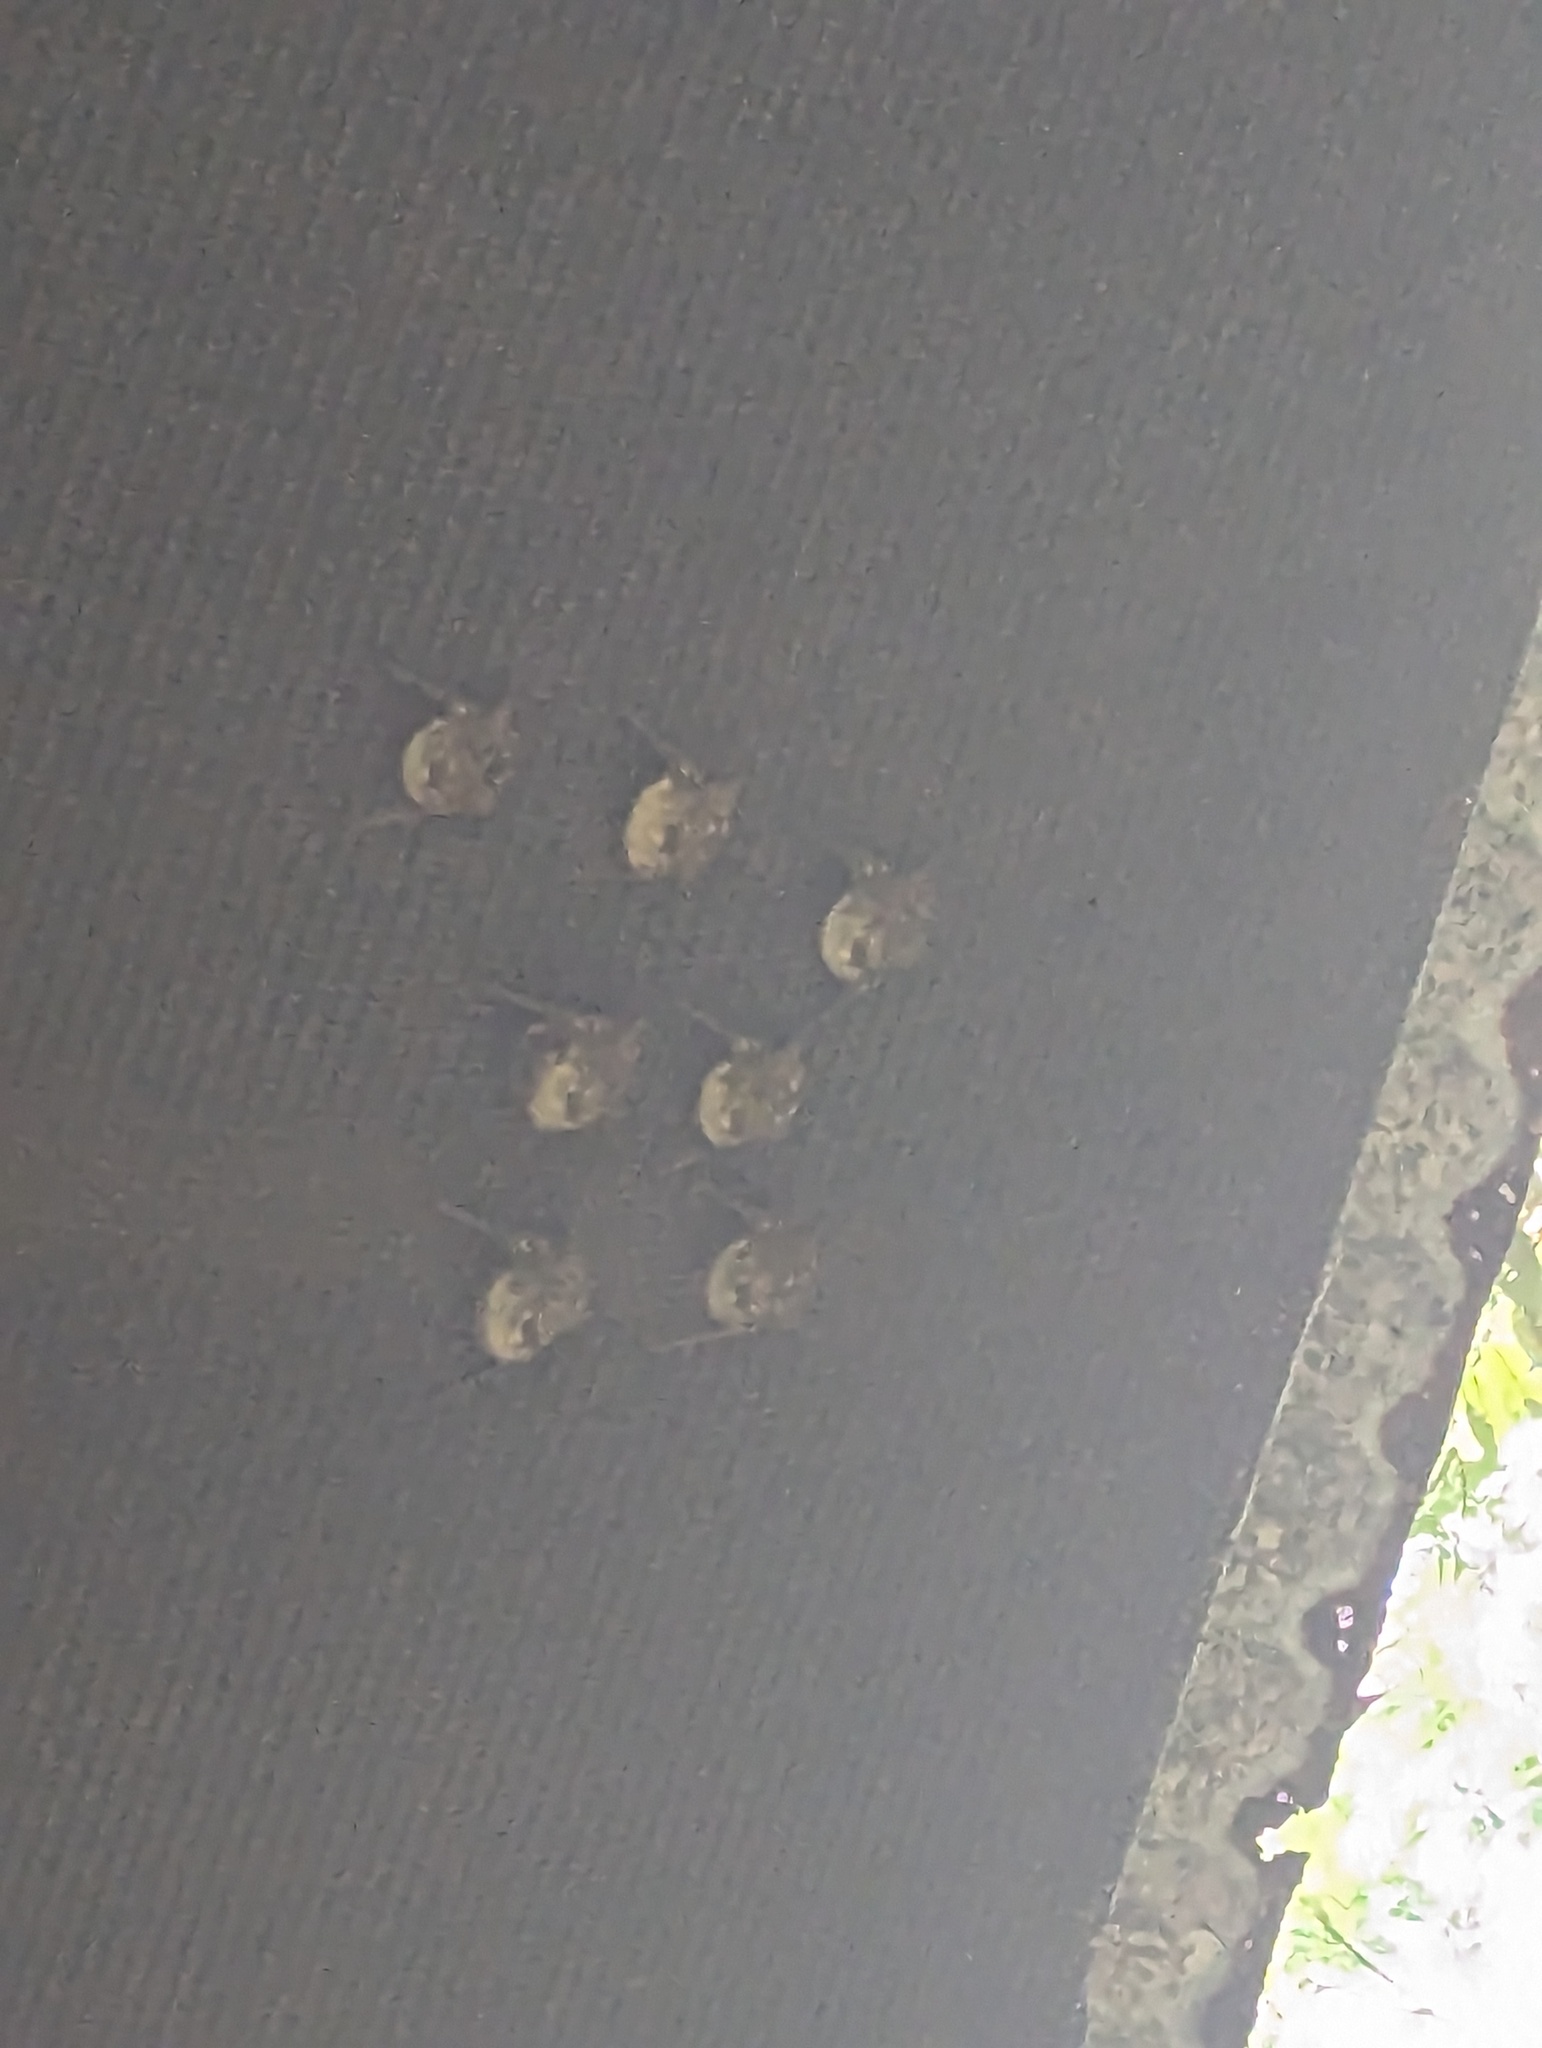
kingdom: Animalia
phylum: Chordata
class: Mammalia
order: Chiroptera
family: Emballonuridae
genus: Rhynchonycteris
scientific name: Rhynchonycteris naso
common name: Proboscis bat
